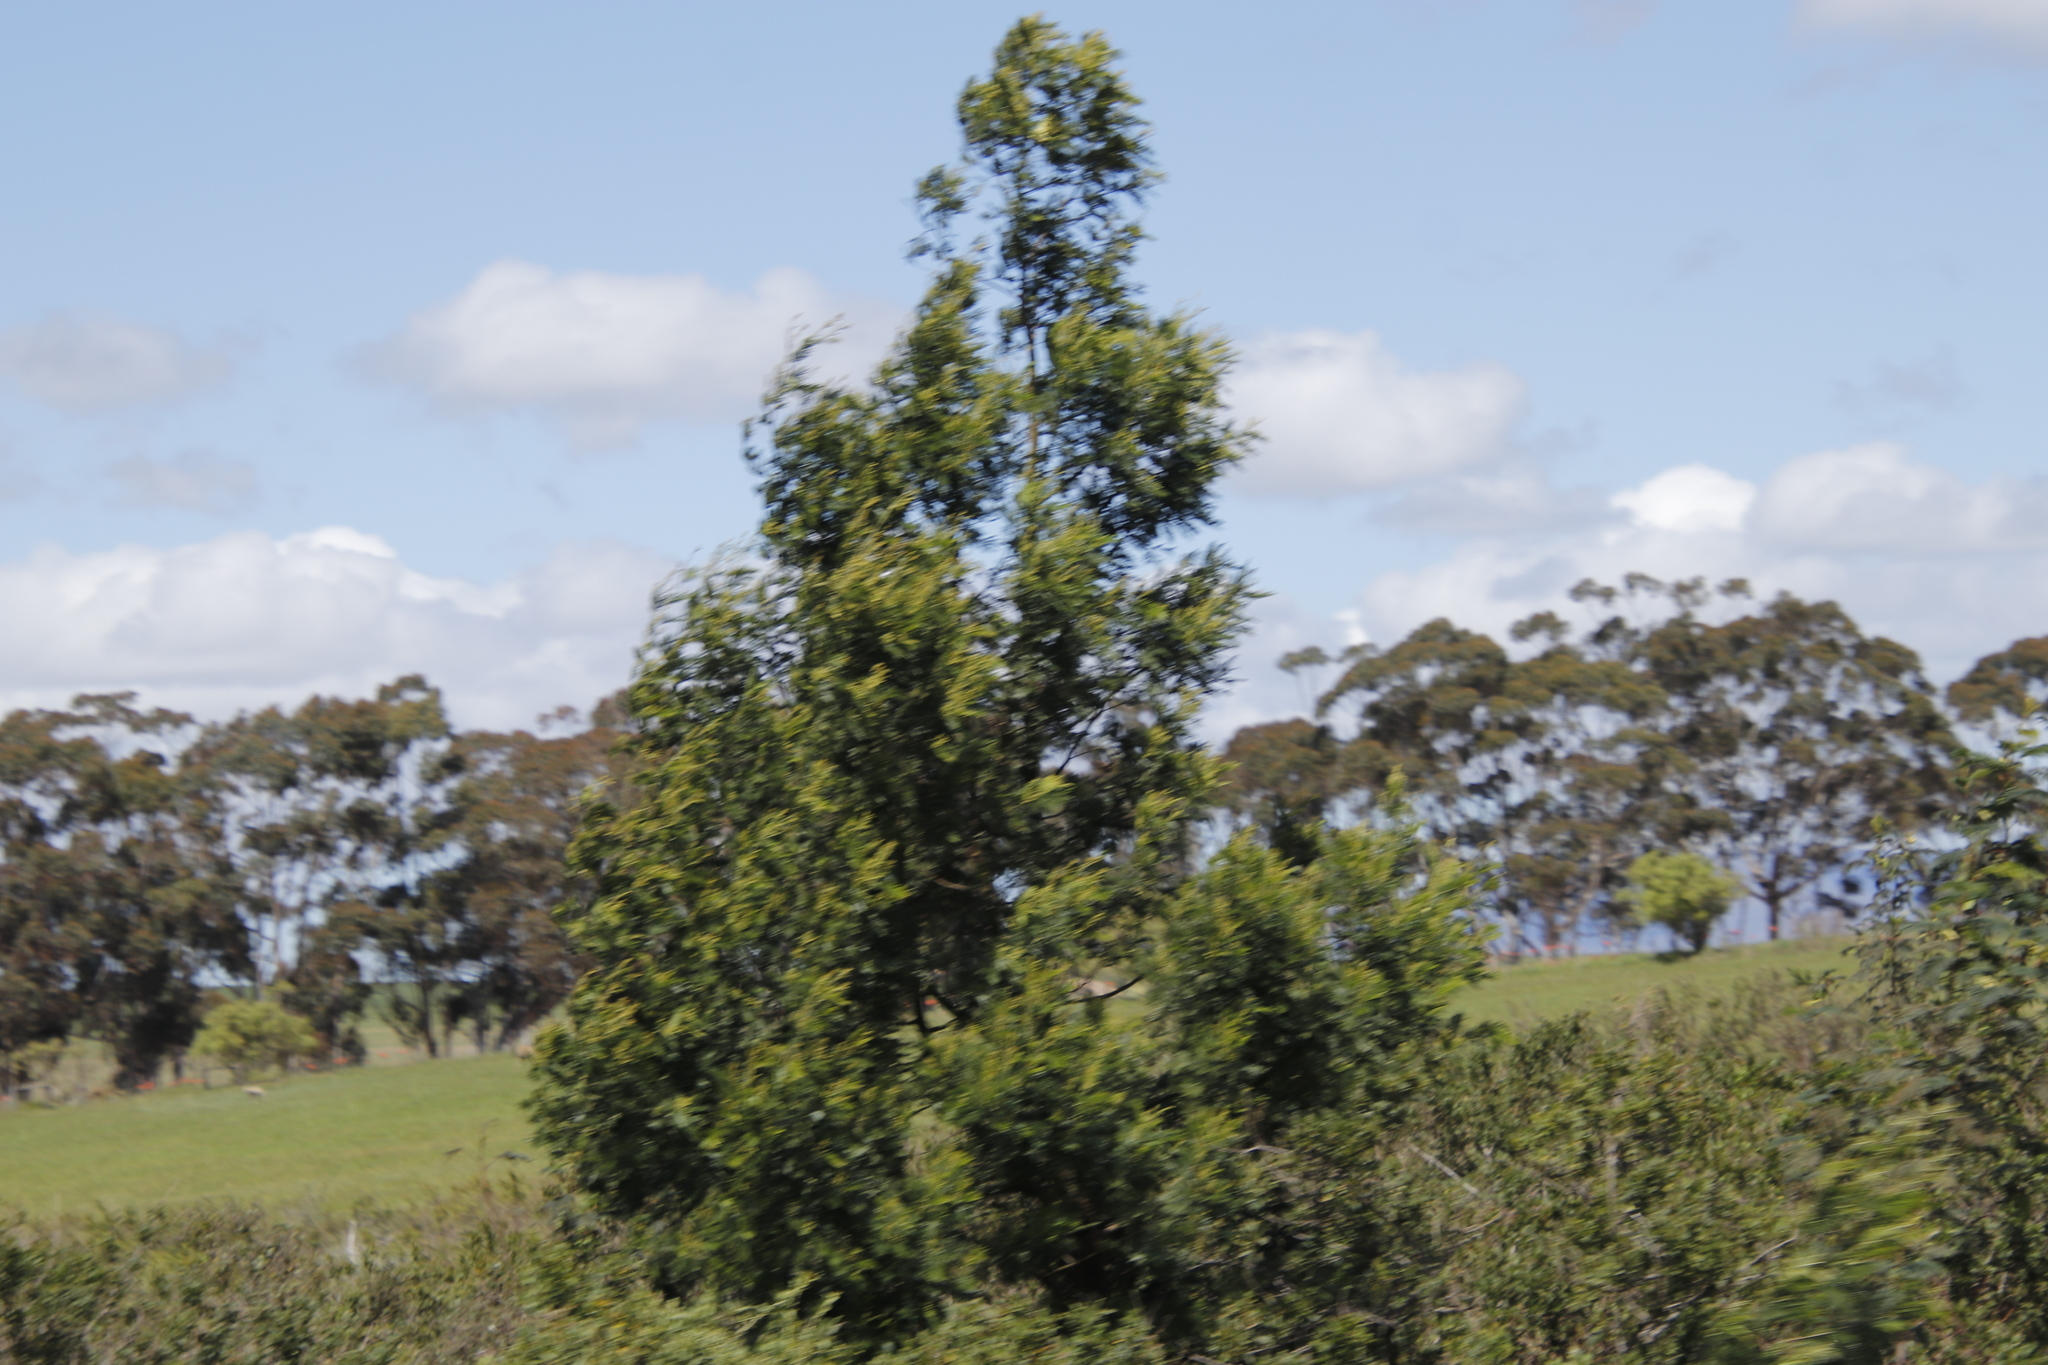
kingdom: Plantae
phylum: Tracheophyta
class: Magnoliopsida
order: Fabales
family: Fabaceae
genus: Acacia
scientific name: Acacia mearnsii
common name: Black wattle
